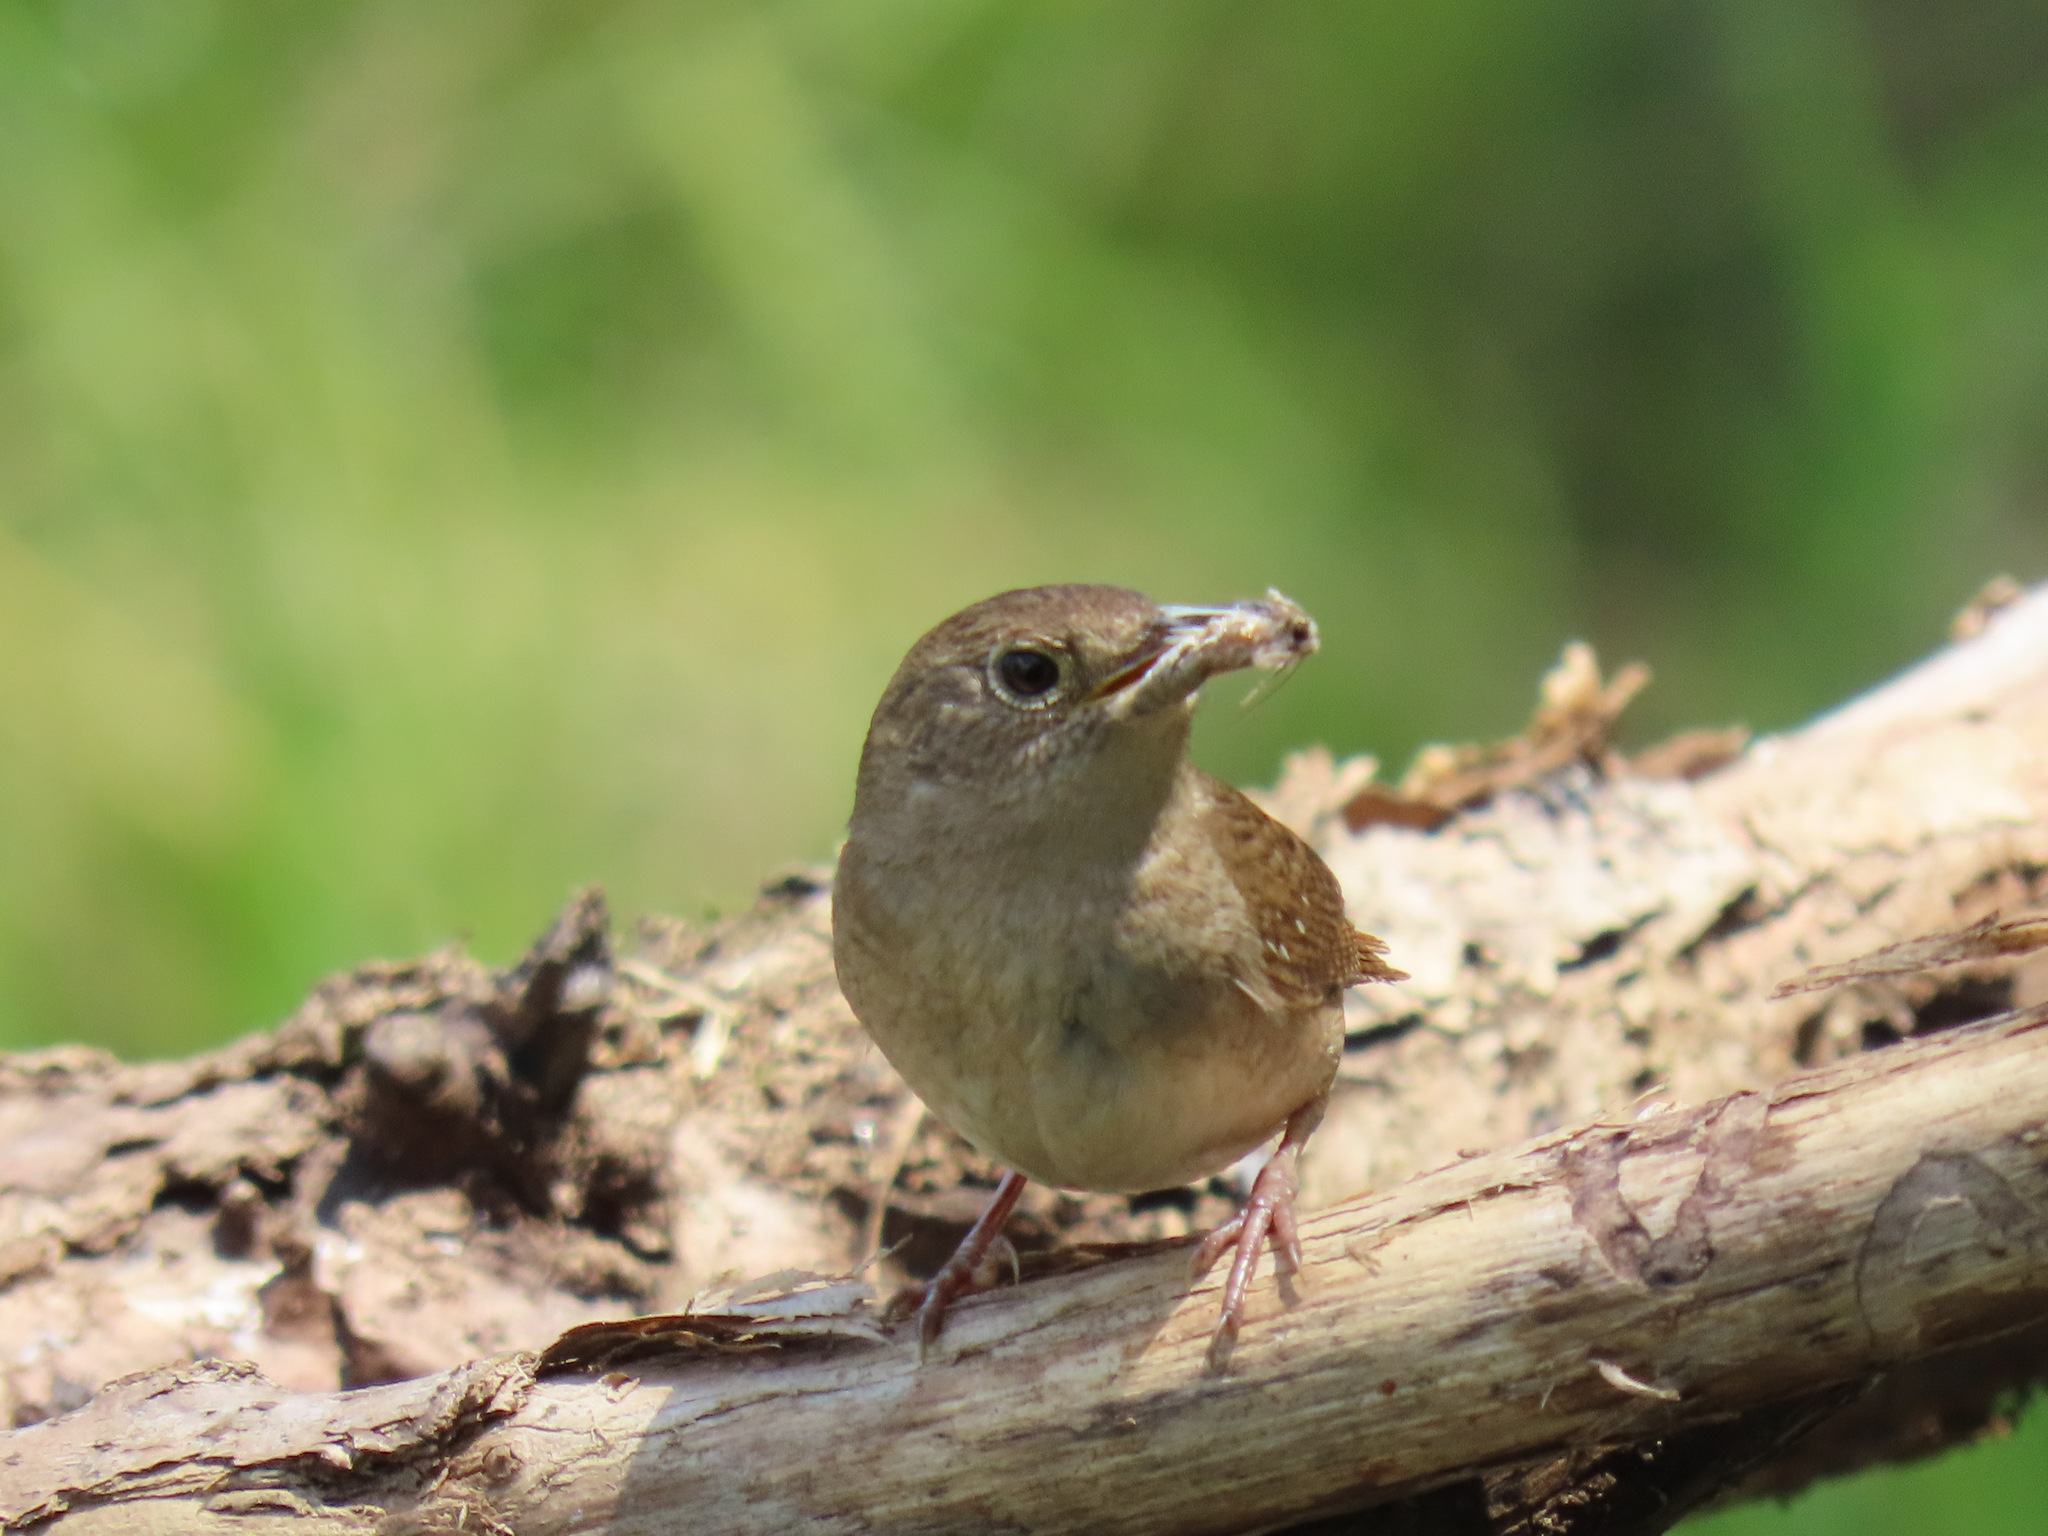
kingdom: Animalia
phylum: Chordata
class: Aves
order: Passeriformes
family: Troglodytidae
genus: Troglodytes
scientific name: Troglodytes aedon
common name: House wren
